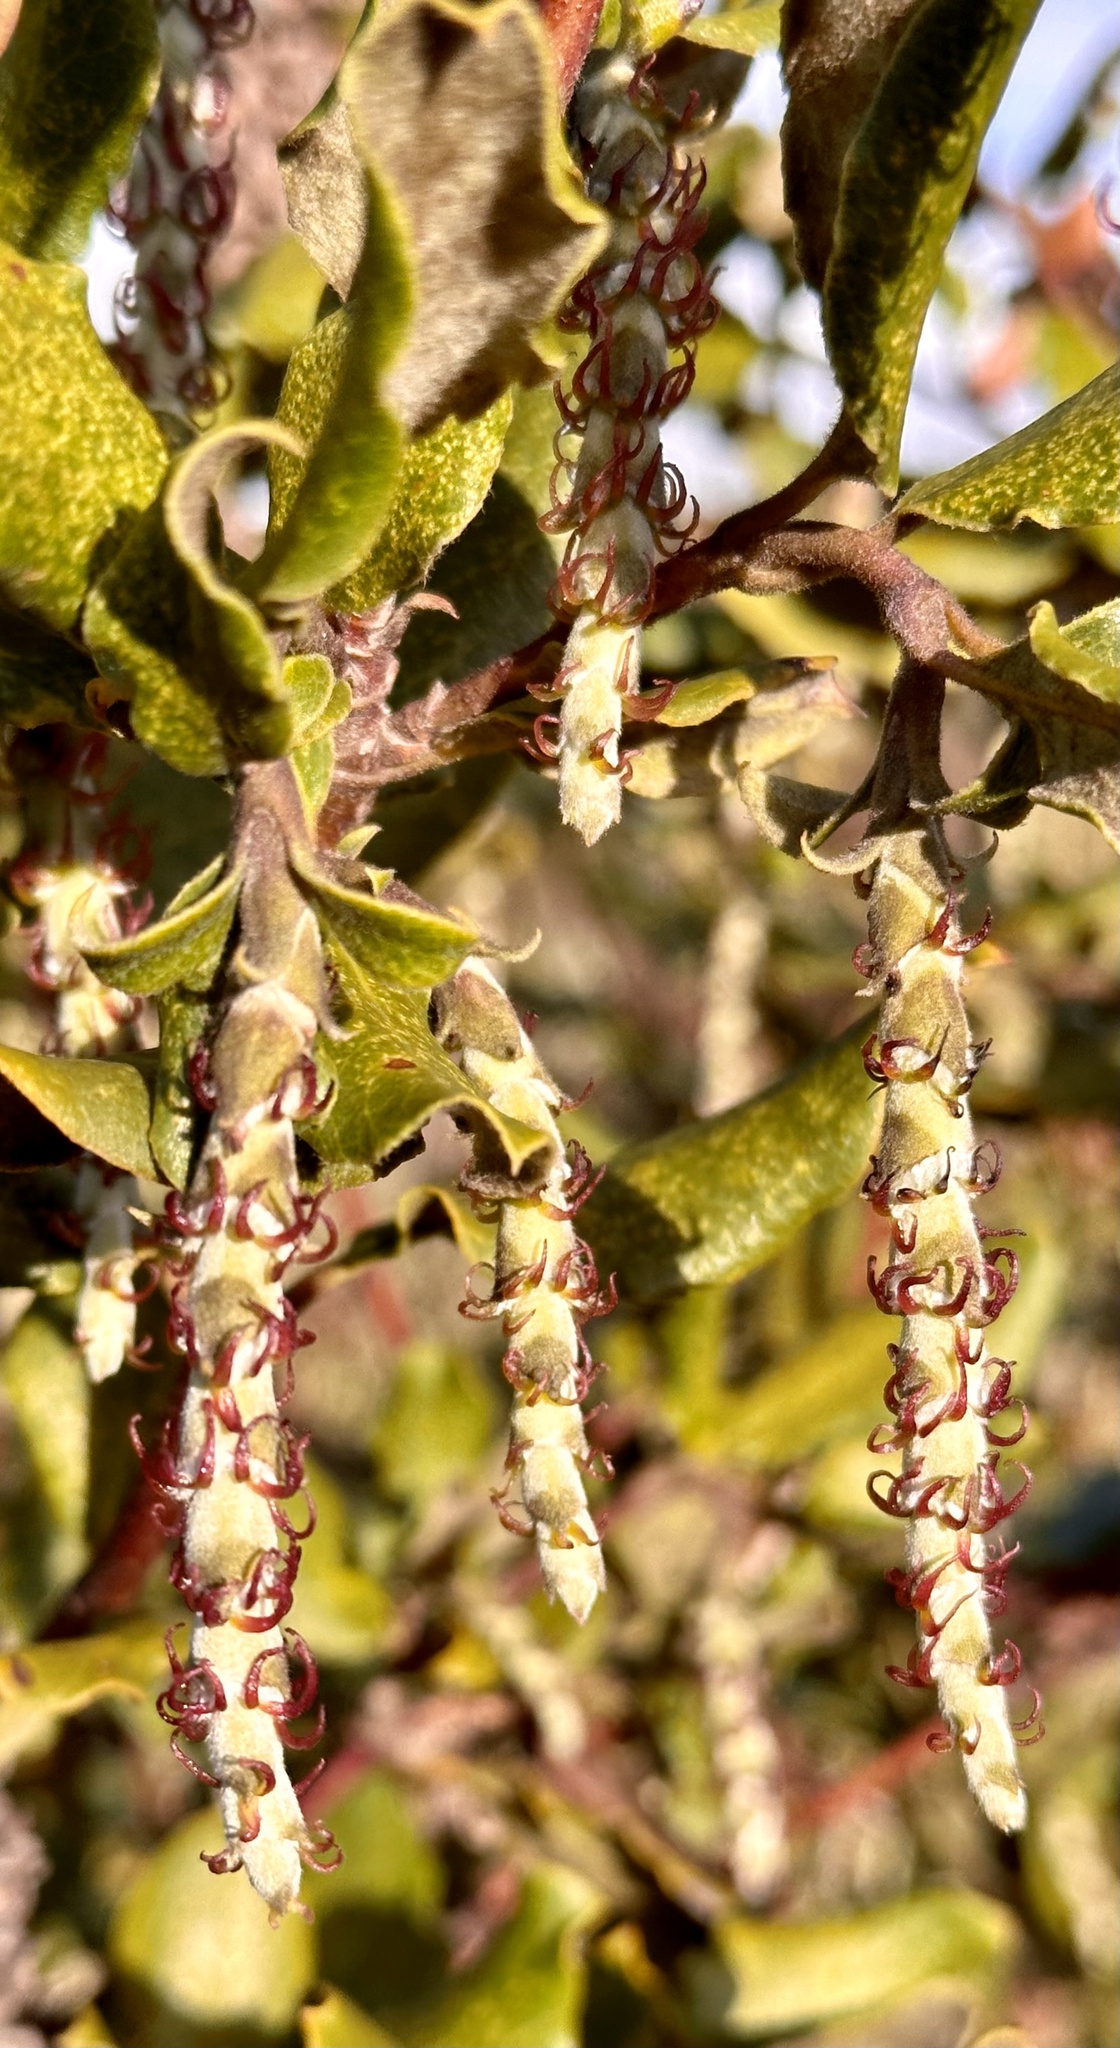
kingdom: Plantae
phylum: Tracheophyta
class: Magnoliopsida
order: Garryales
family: Garryaceae
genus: Garrya
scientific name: Garrya elliptica
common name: Silk-tassel
